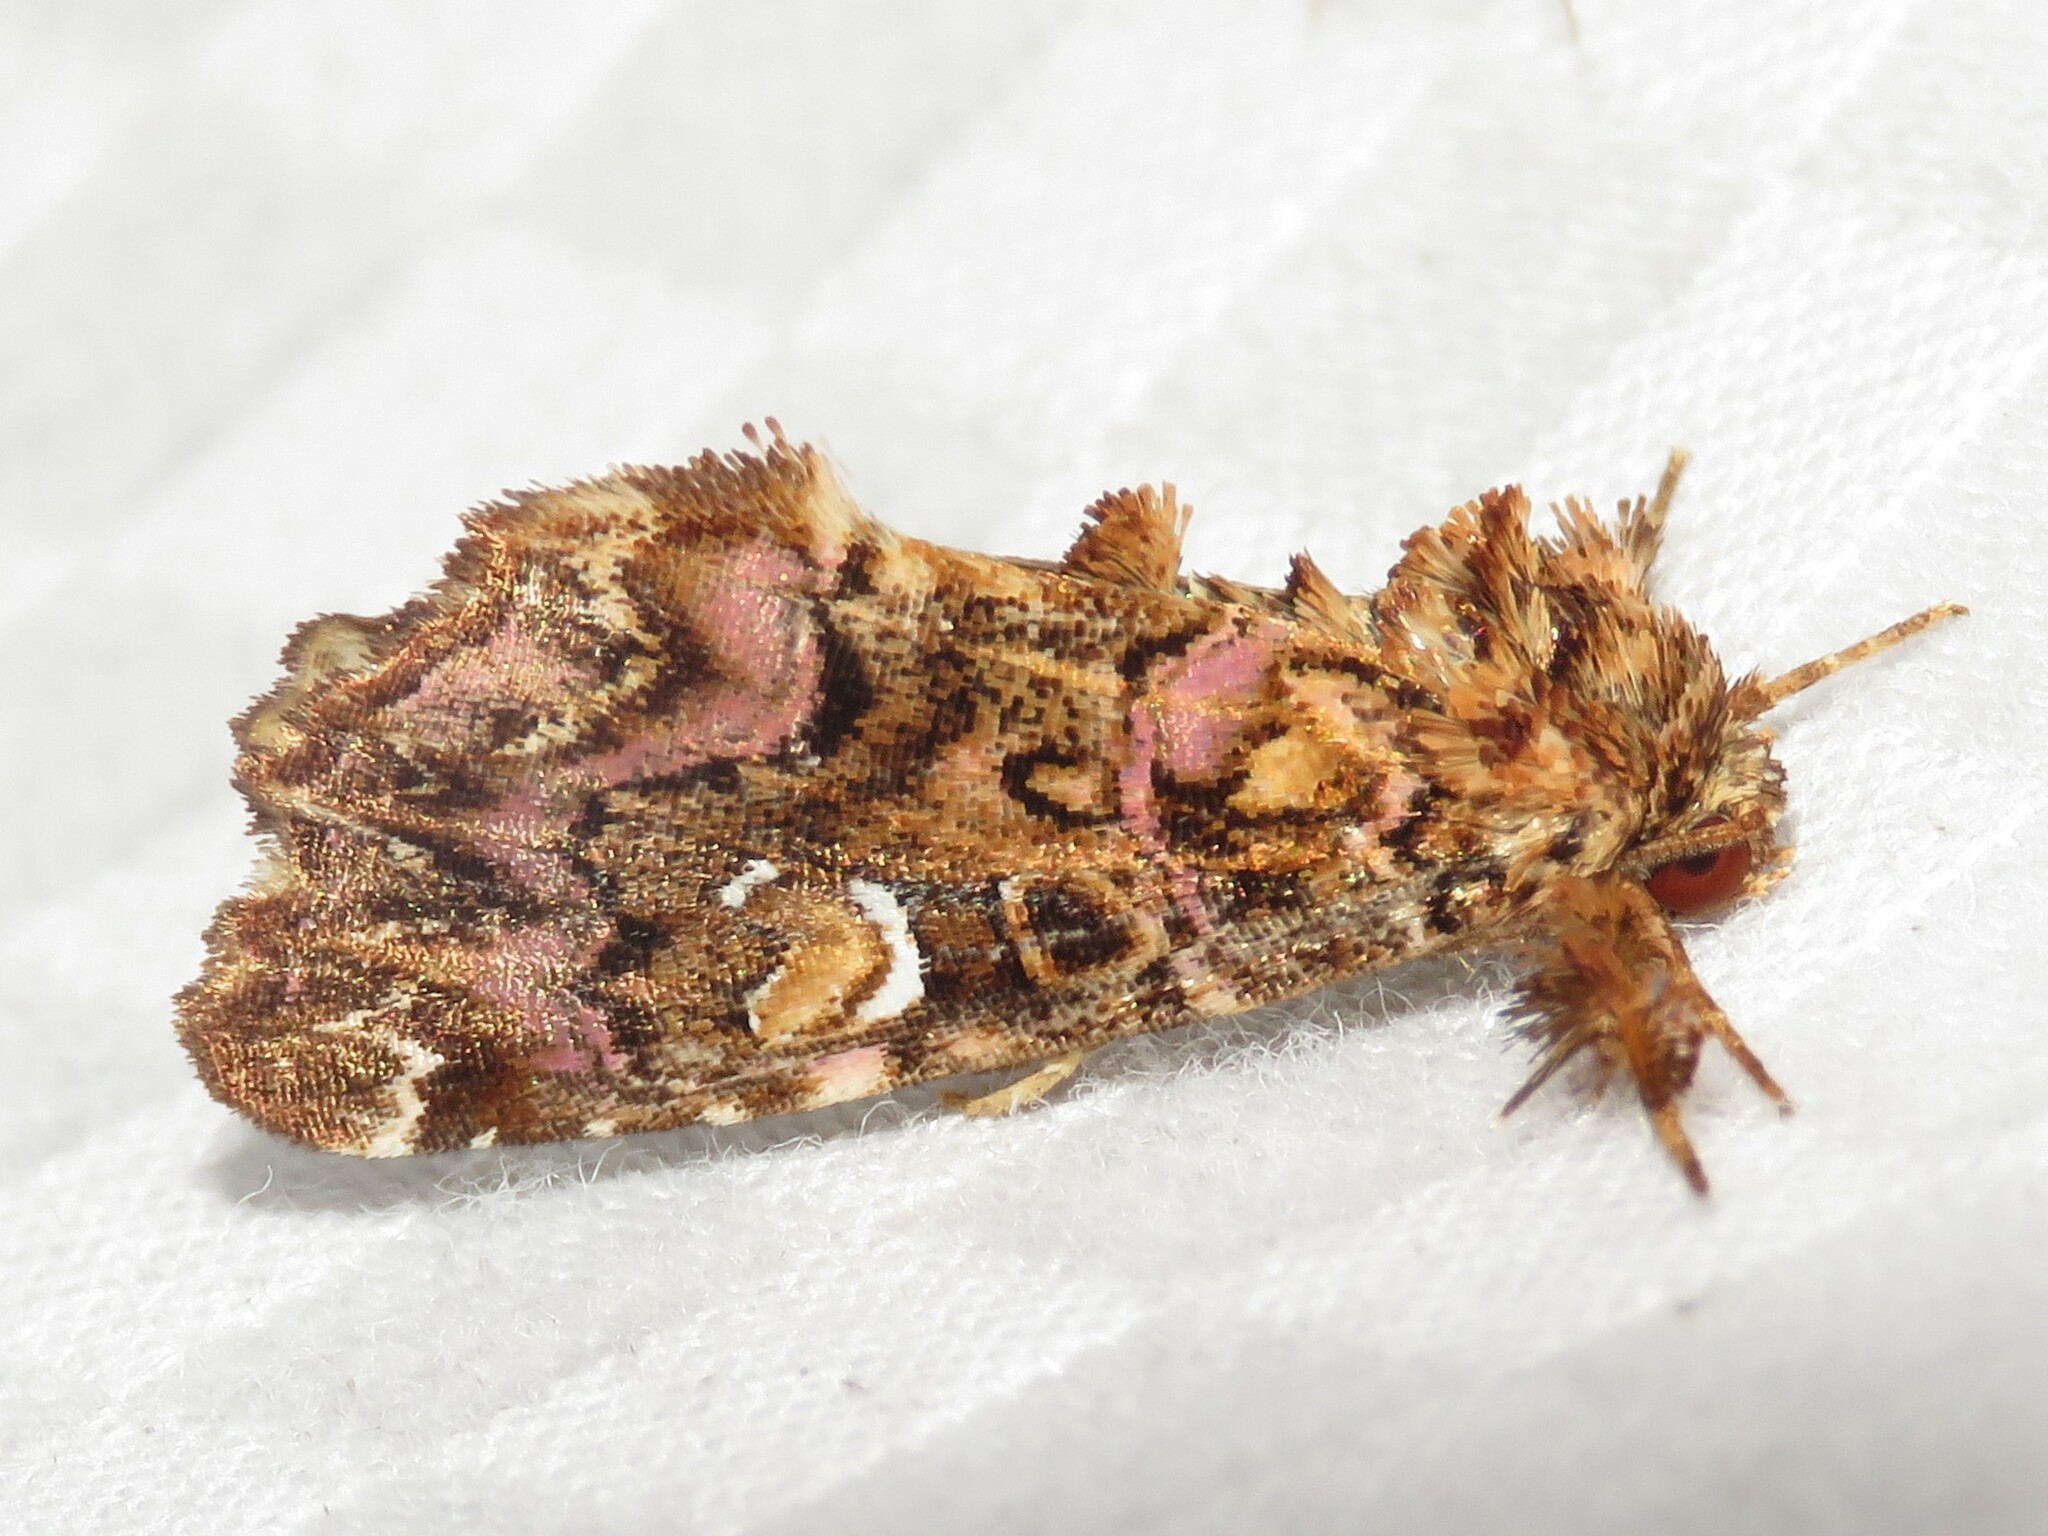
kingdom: Animalia
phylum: Arthropoda
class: Insecta
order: Lepidoptera
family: Noctuidae
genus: Callopistria
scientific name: Callopistria mollissima
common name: Pink-shaded fern moth
